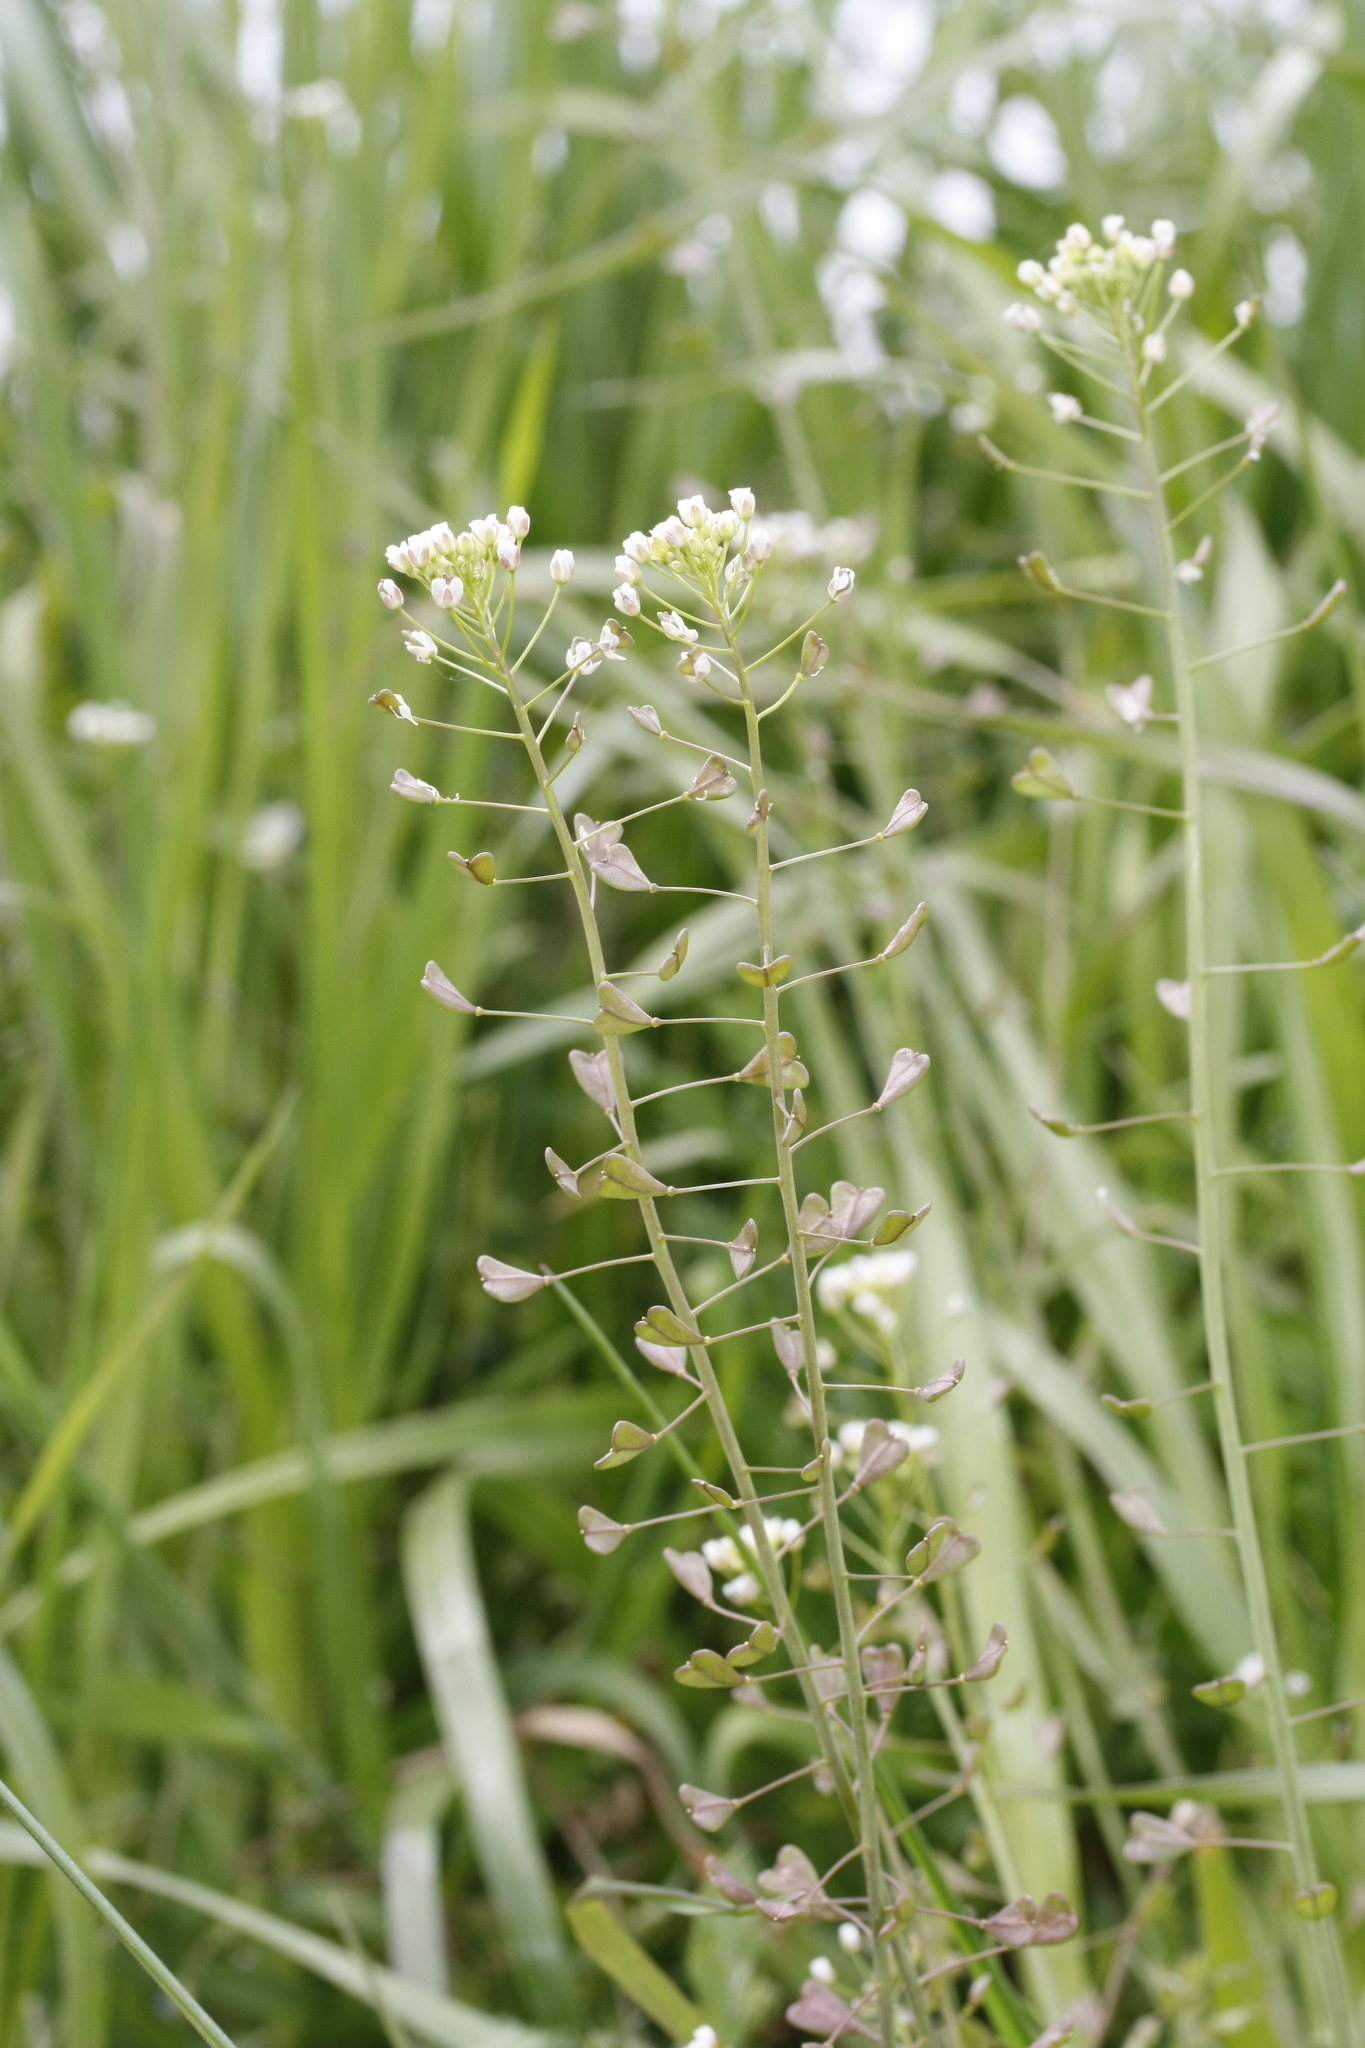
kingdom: Plantae
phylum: Tracheophyta
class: Magnoliopsida
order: Brassicales
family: Brassicaceae
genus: Capsella
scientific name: Capsella bursa-pastoris
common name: Shepherd's purse
